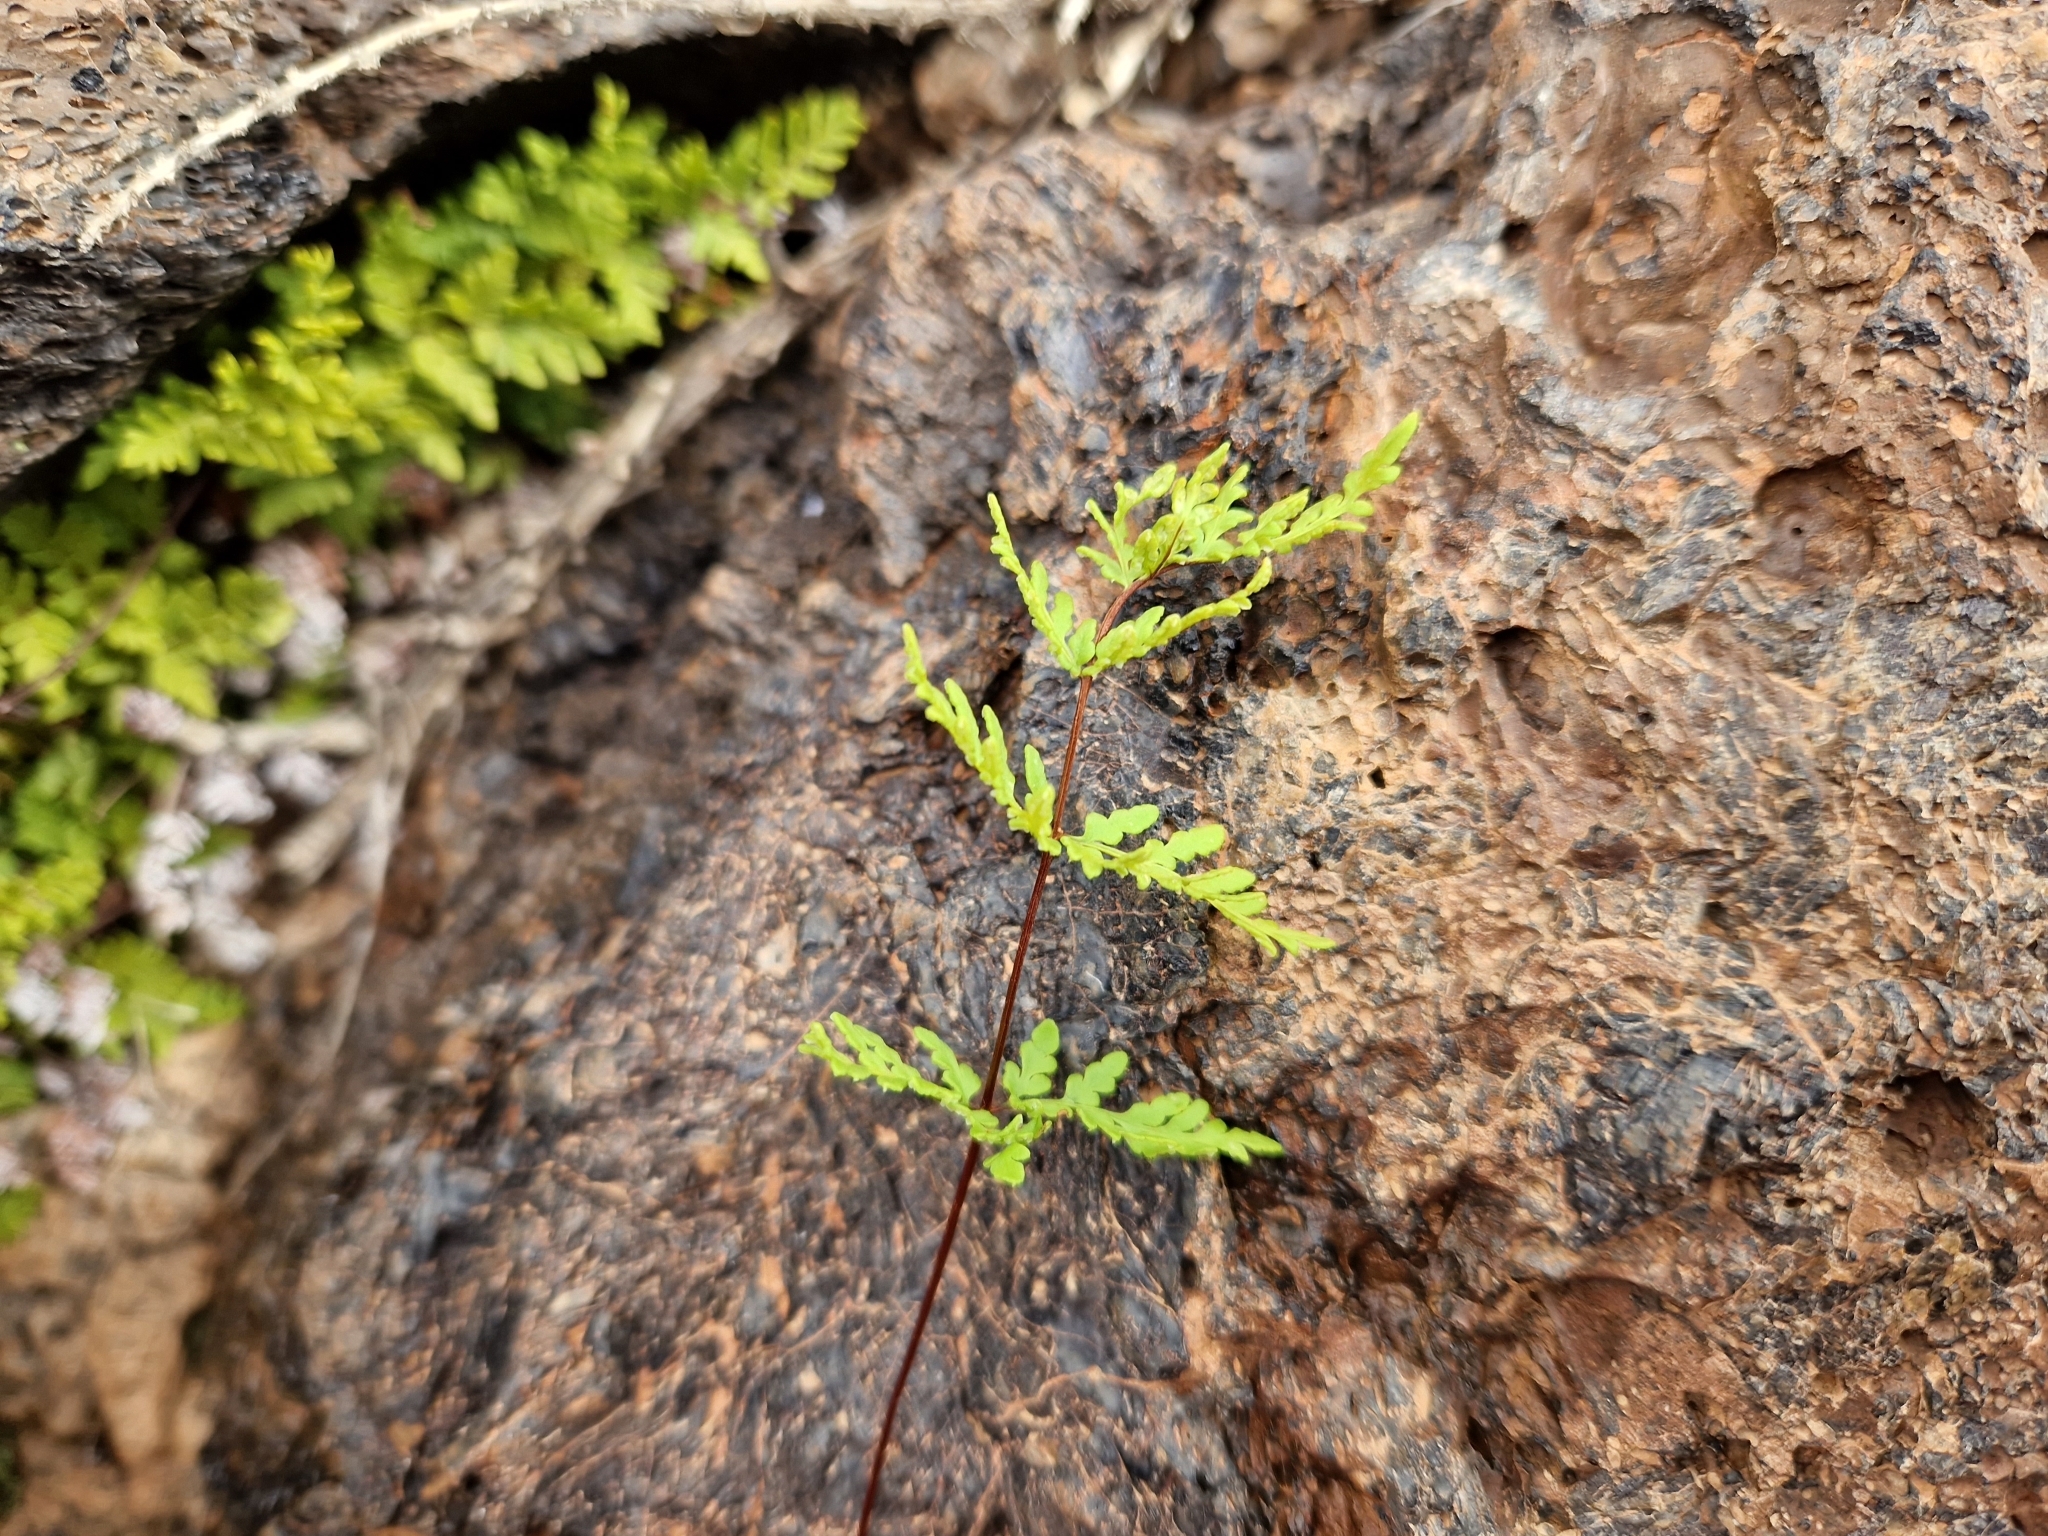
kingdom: Plantae
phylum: Tracheophyta
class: Polypodiopsida
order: Polypodiales
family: Pteridaceae
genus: Oeosporangium
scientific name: Oeosporangium guanchicum
